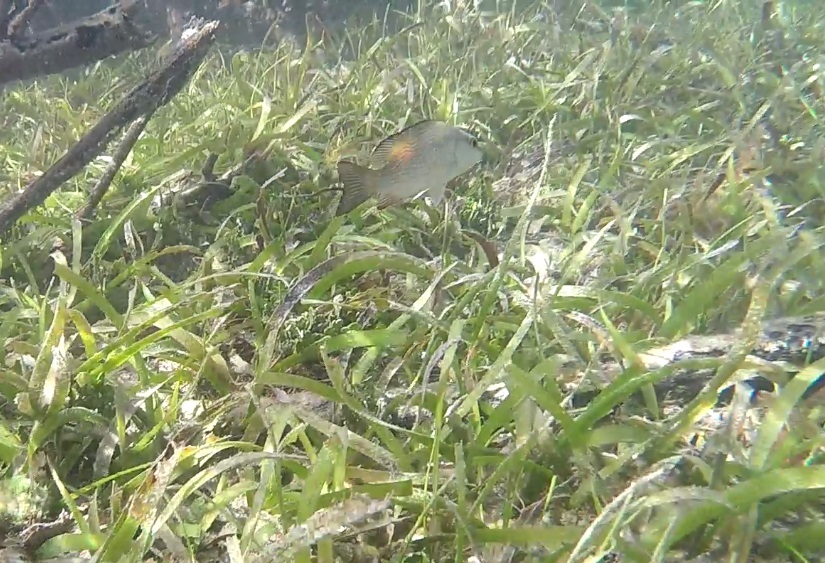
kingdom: Animalia
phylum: Chordata
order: Perciformes
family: Lutjanidae
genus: Lutjanus
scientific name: Lutjanus griseus
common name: Gray snapper
